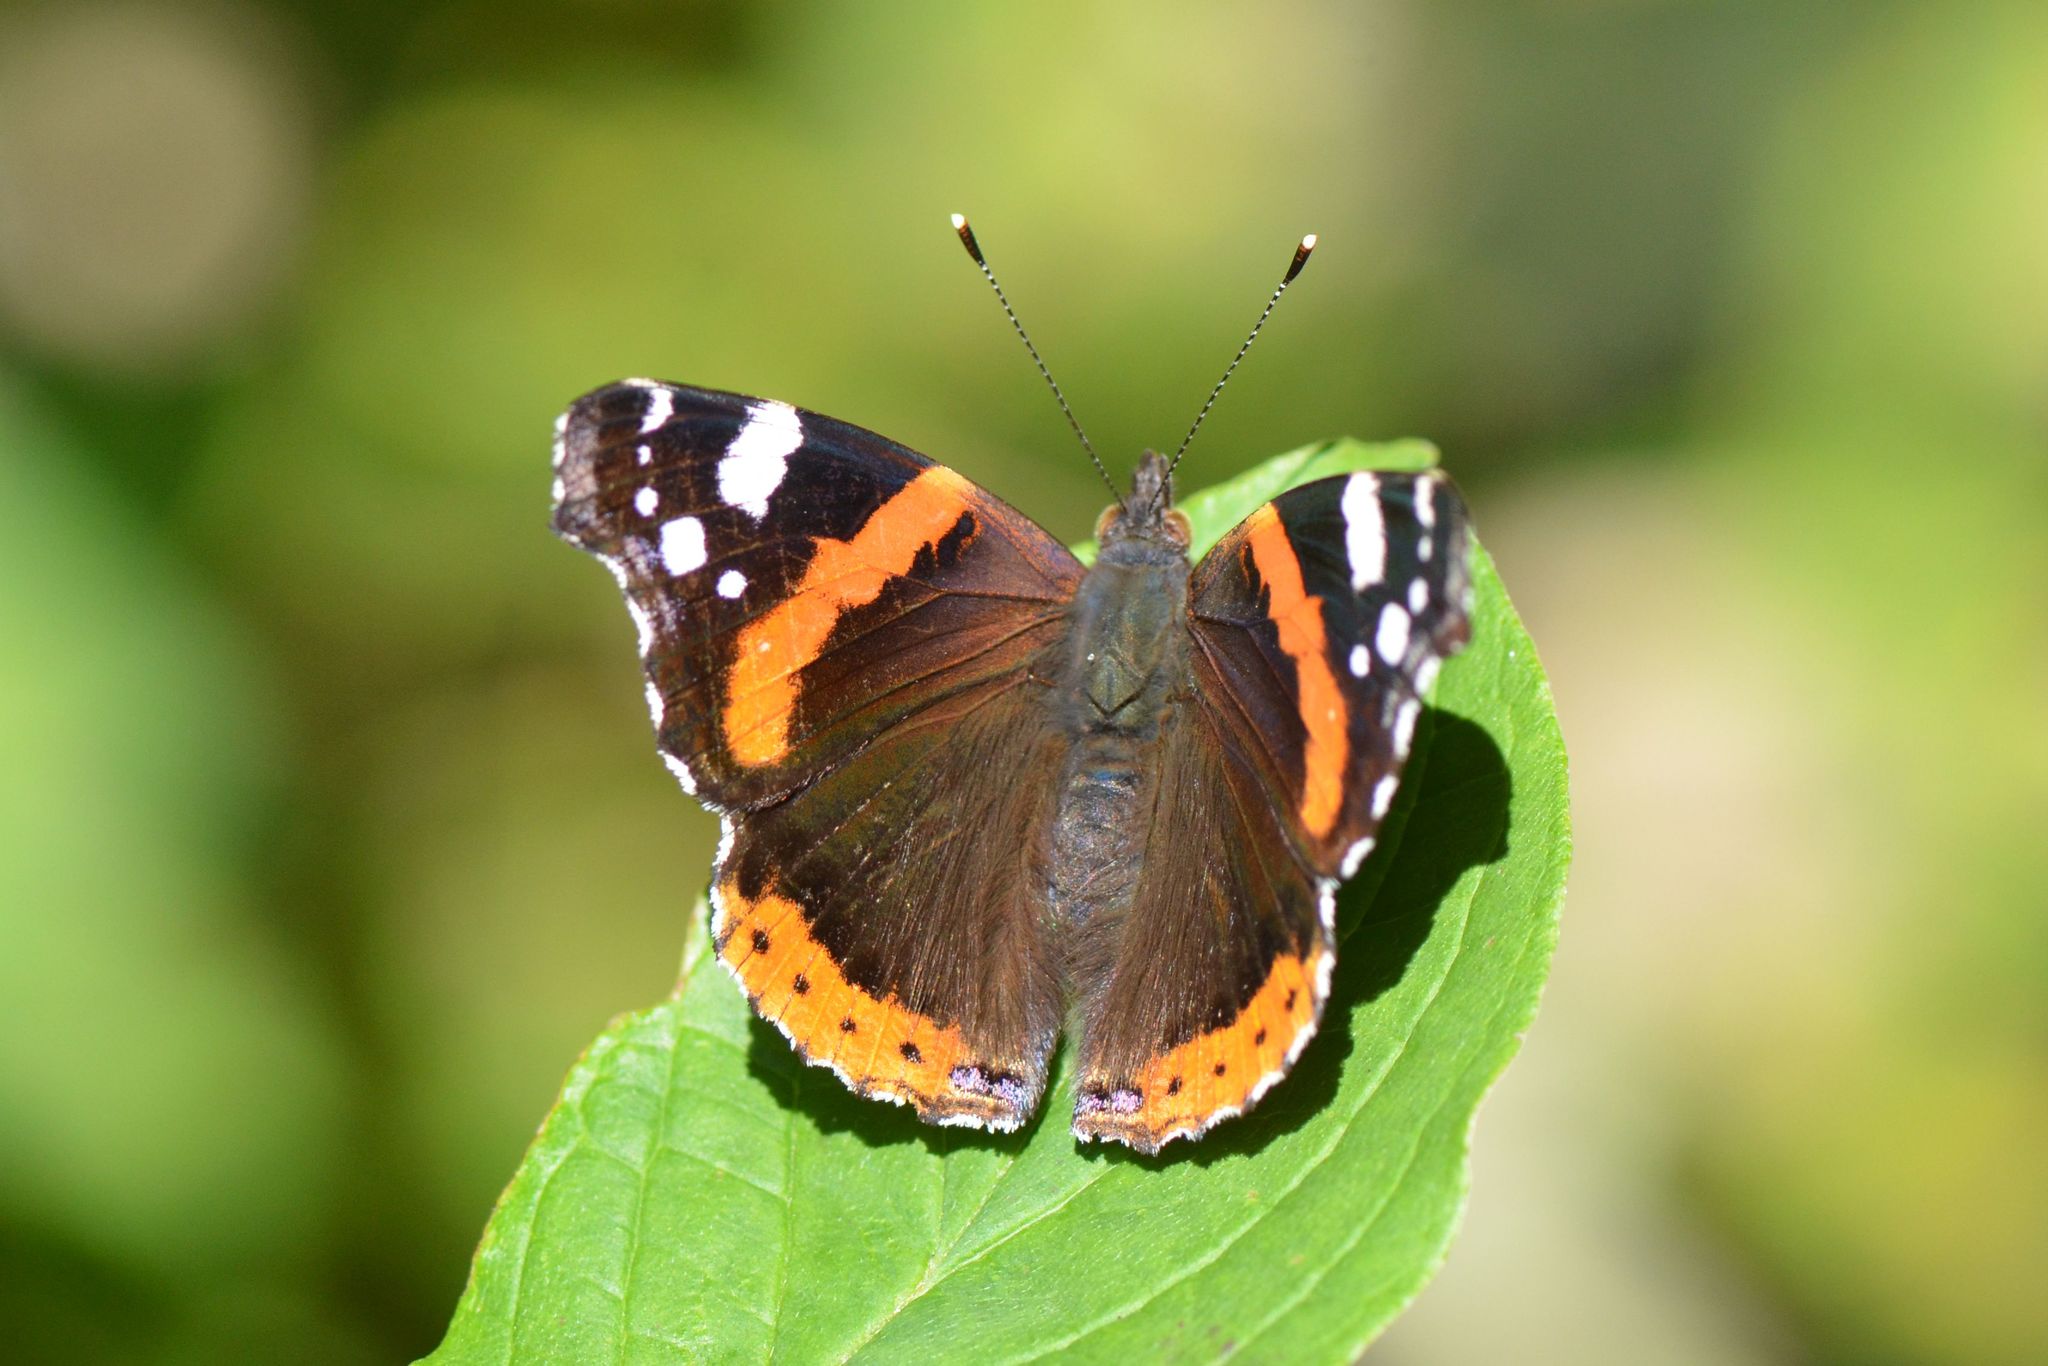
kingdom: Animalia
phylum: Arthropoda
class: Insecta
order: Lepidoptera
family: Nymphalidae
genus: Vanessa
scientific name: Vanessa atalanta
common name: Red admiral
